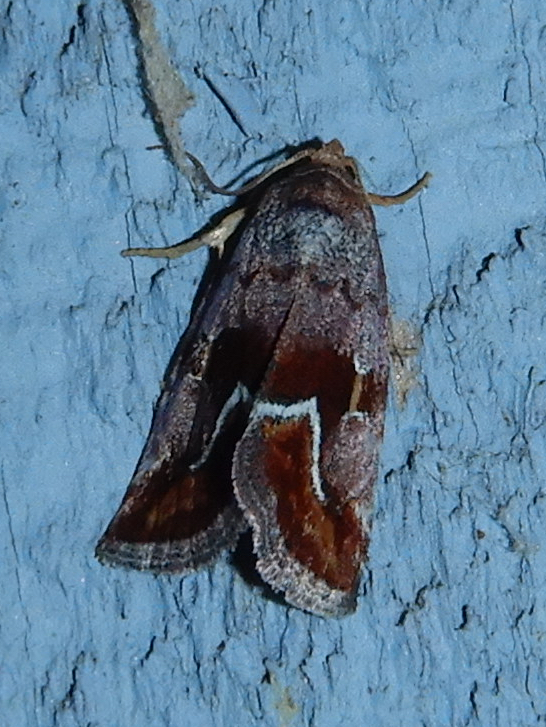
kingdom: Animalia
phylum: Arthropoda
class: Insecta
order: Lepidoptera
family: Noctuidae
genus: Deltote
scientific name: Deltote bellicula
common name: Bog glyph
